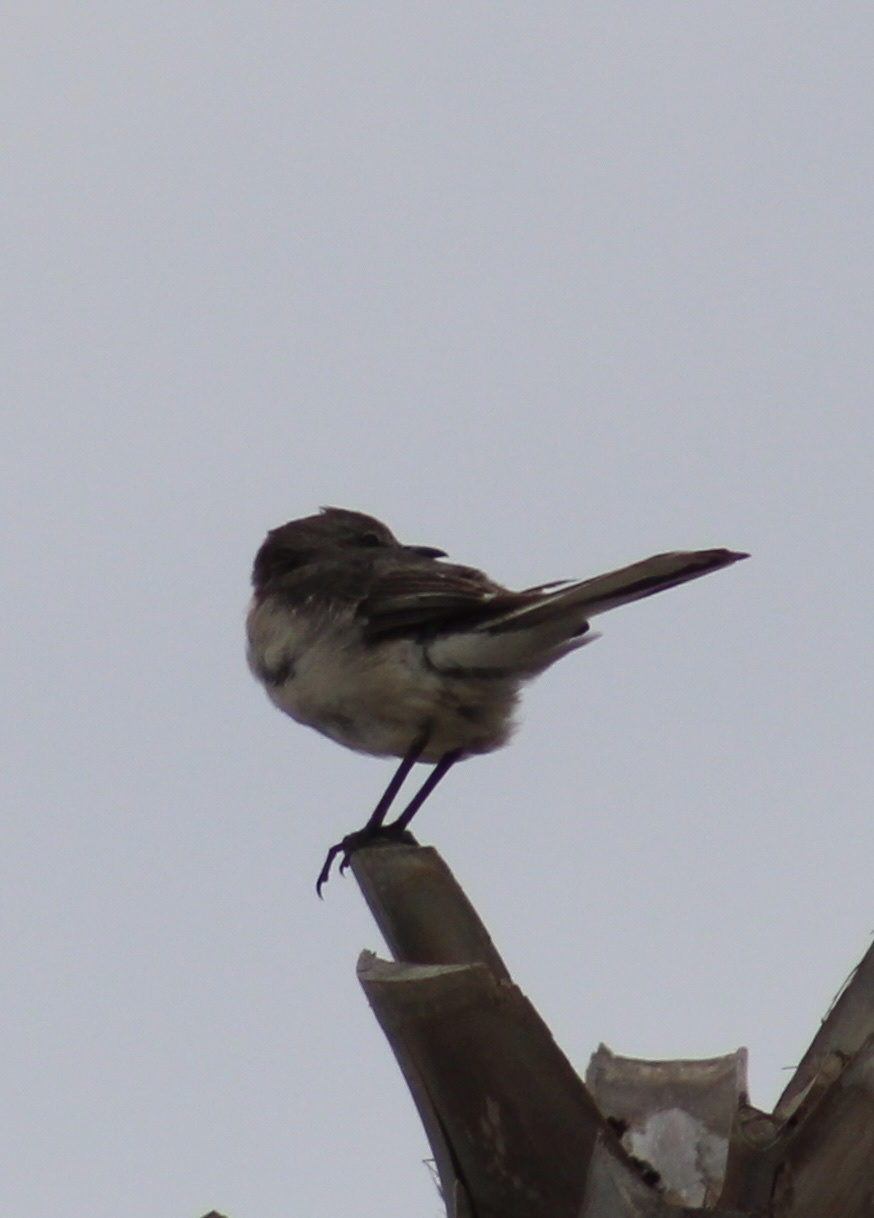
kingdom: Animalia
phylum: Chordata
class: Aves
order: Passeriformes
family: Mimidae
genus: Mimus
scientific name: Mimus polyglottos
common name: Northern mockingbird
